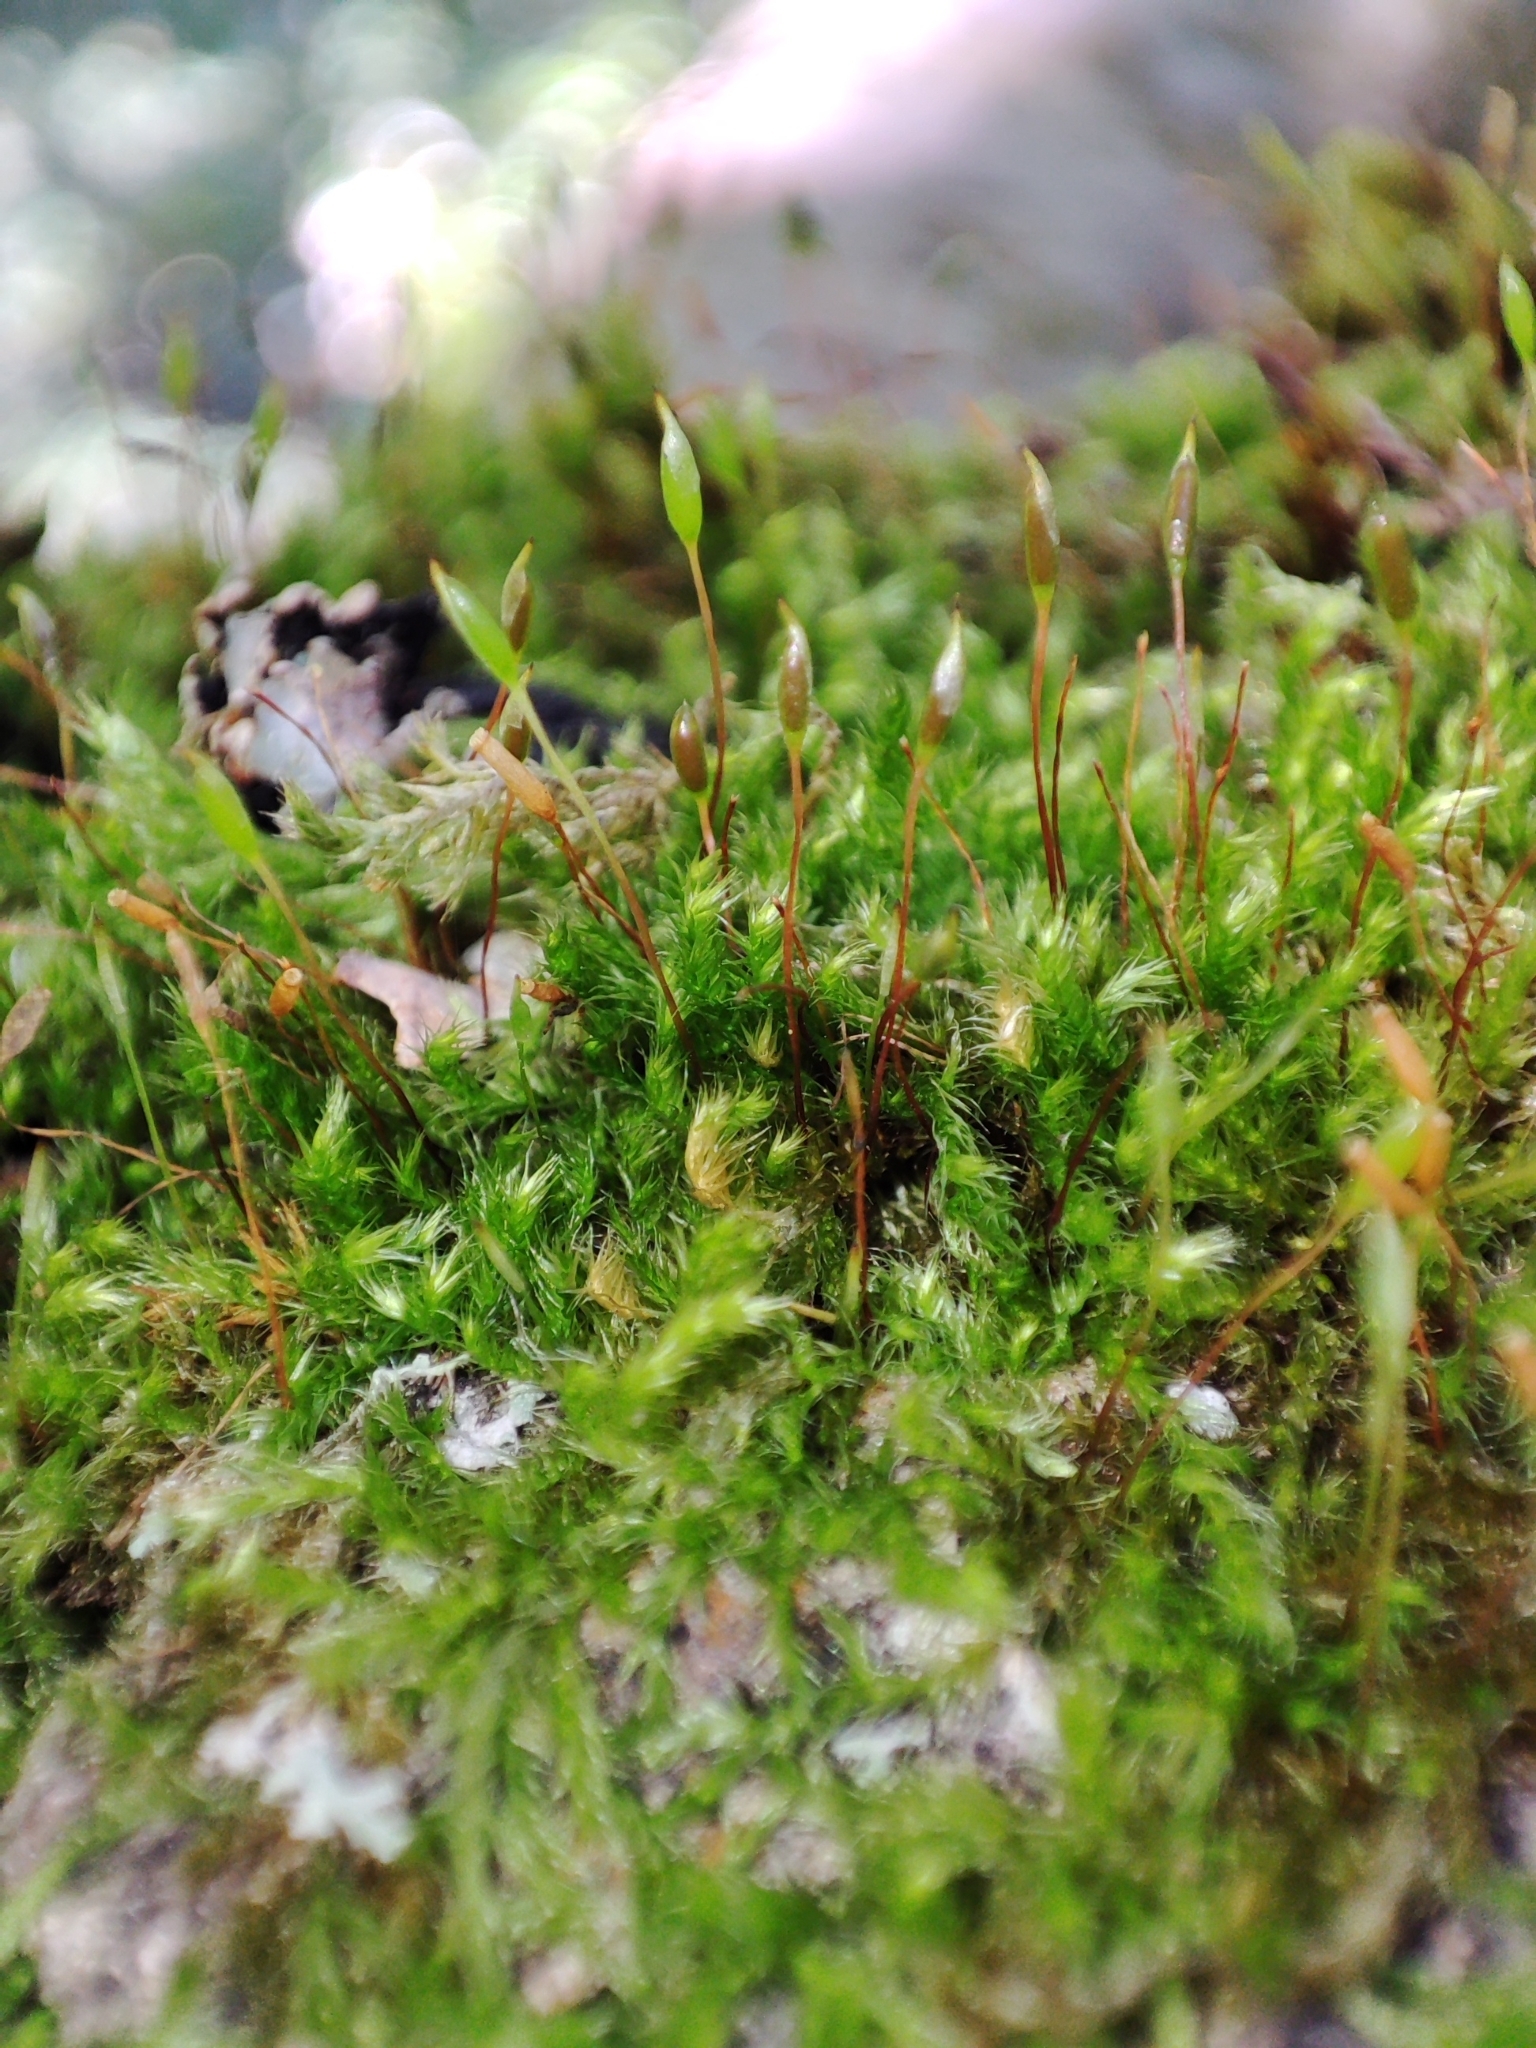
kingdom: Plantae
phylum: Bryophyta
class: Bryopsida
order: Hypnales
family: Pylaisiaceae
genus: Pylaisia
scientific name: Pylaisia polyantha
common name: Many-flowered leskea
